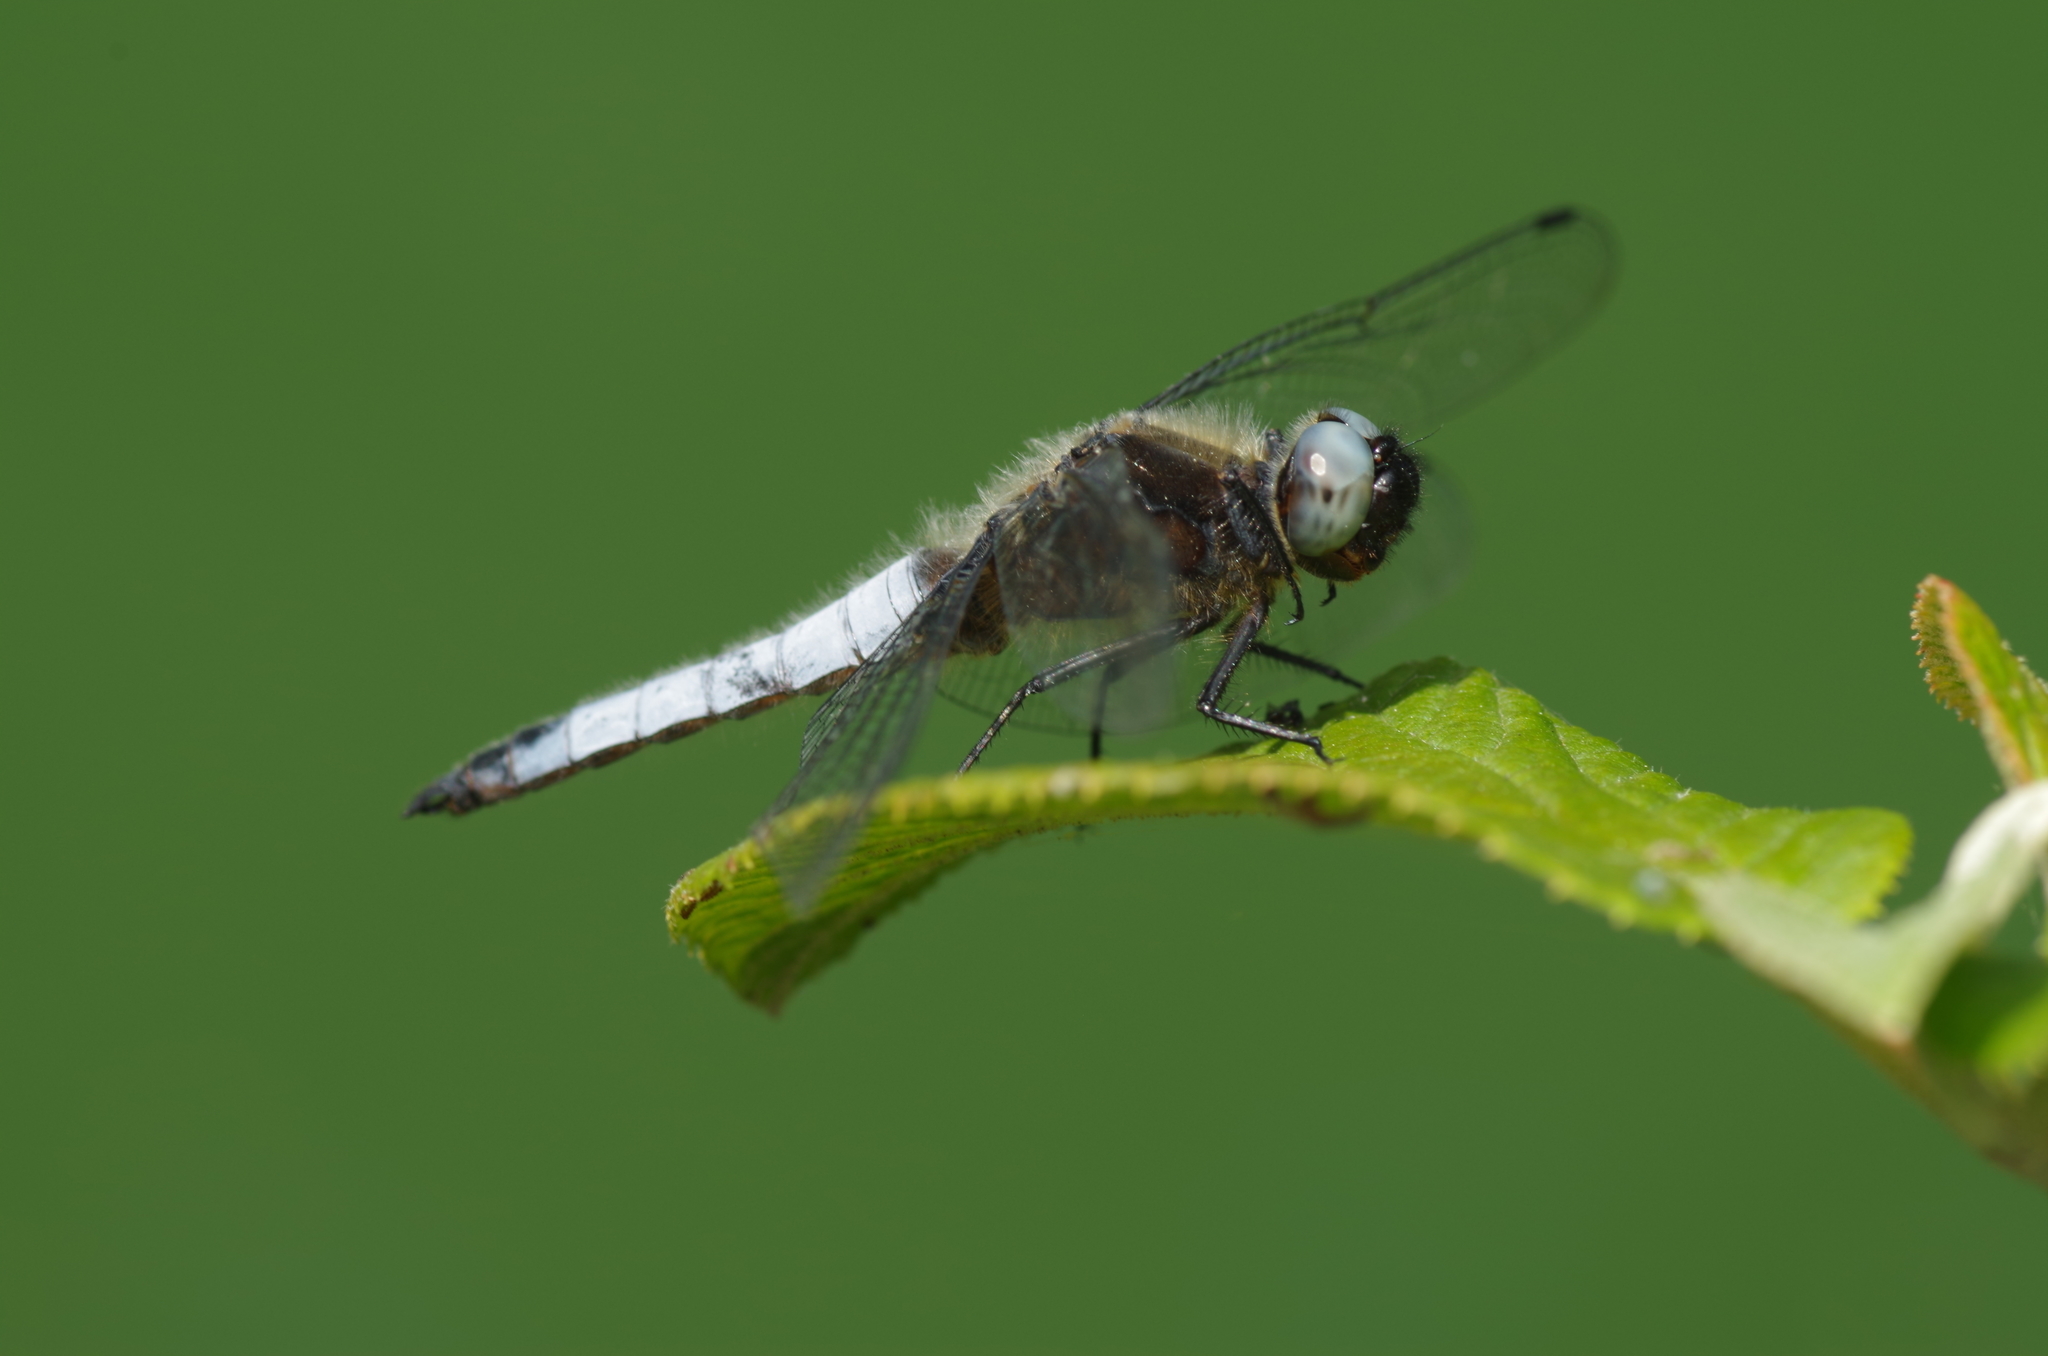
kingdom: Animalia
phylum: Arthropoda
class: Insecta
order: Odonata
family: Libellulidae
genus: Libellula
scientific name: Libellula fulva
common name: Blue chaser
